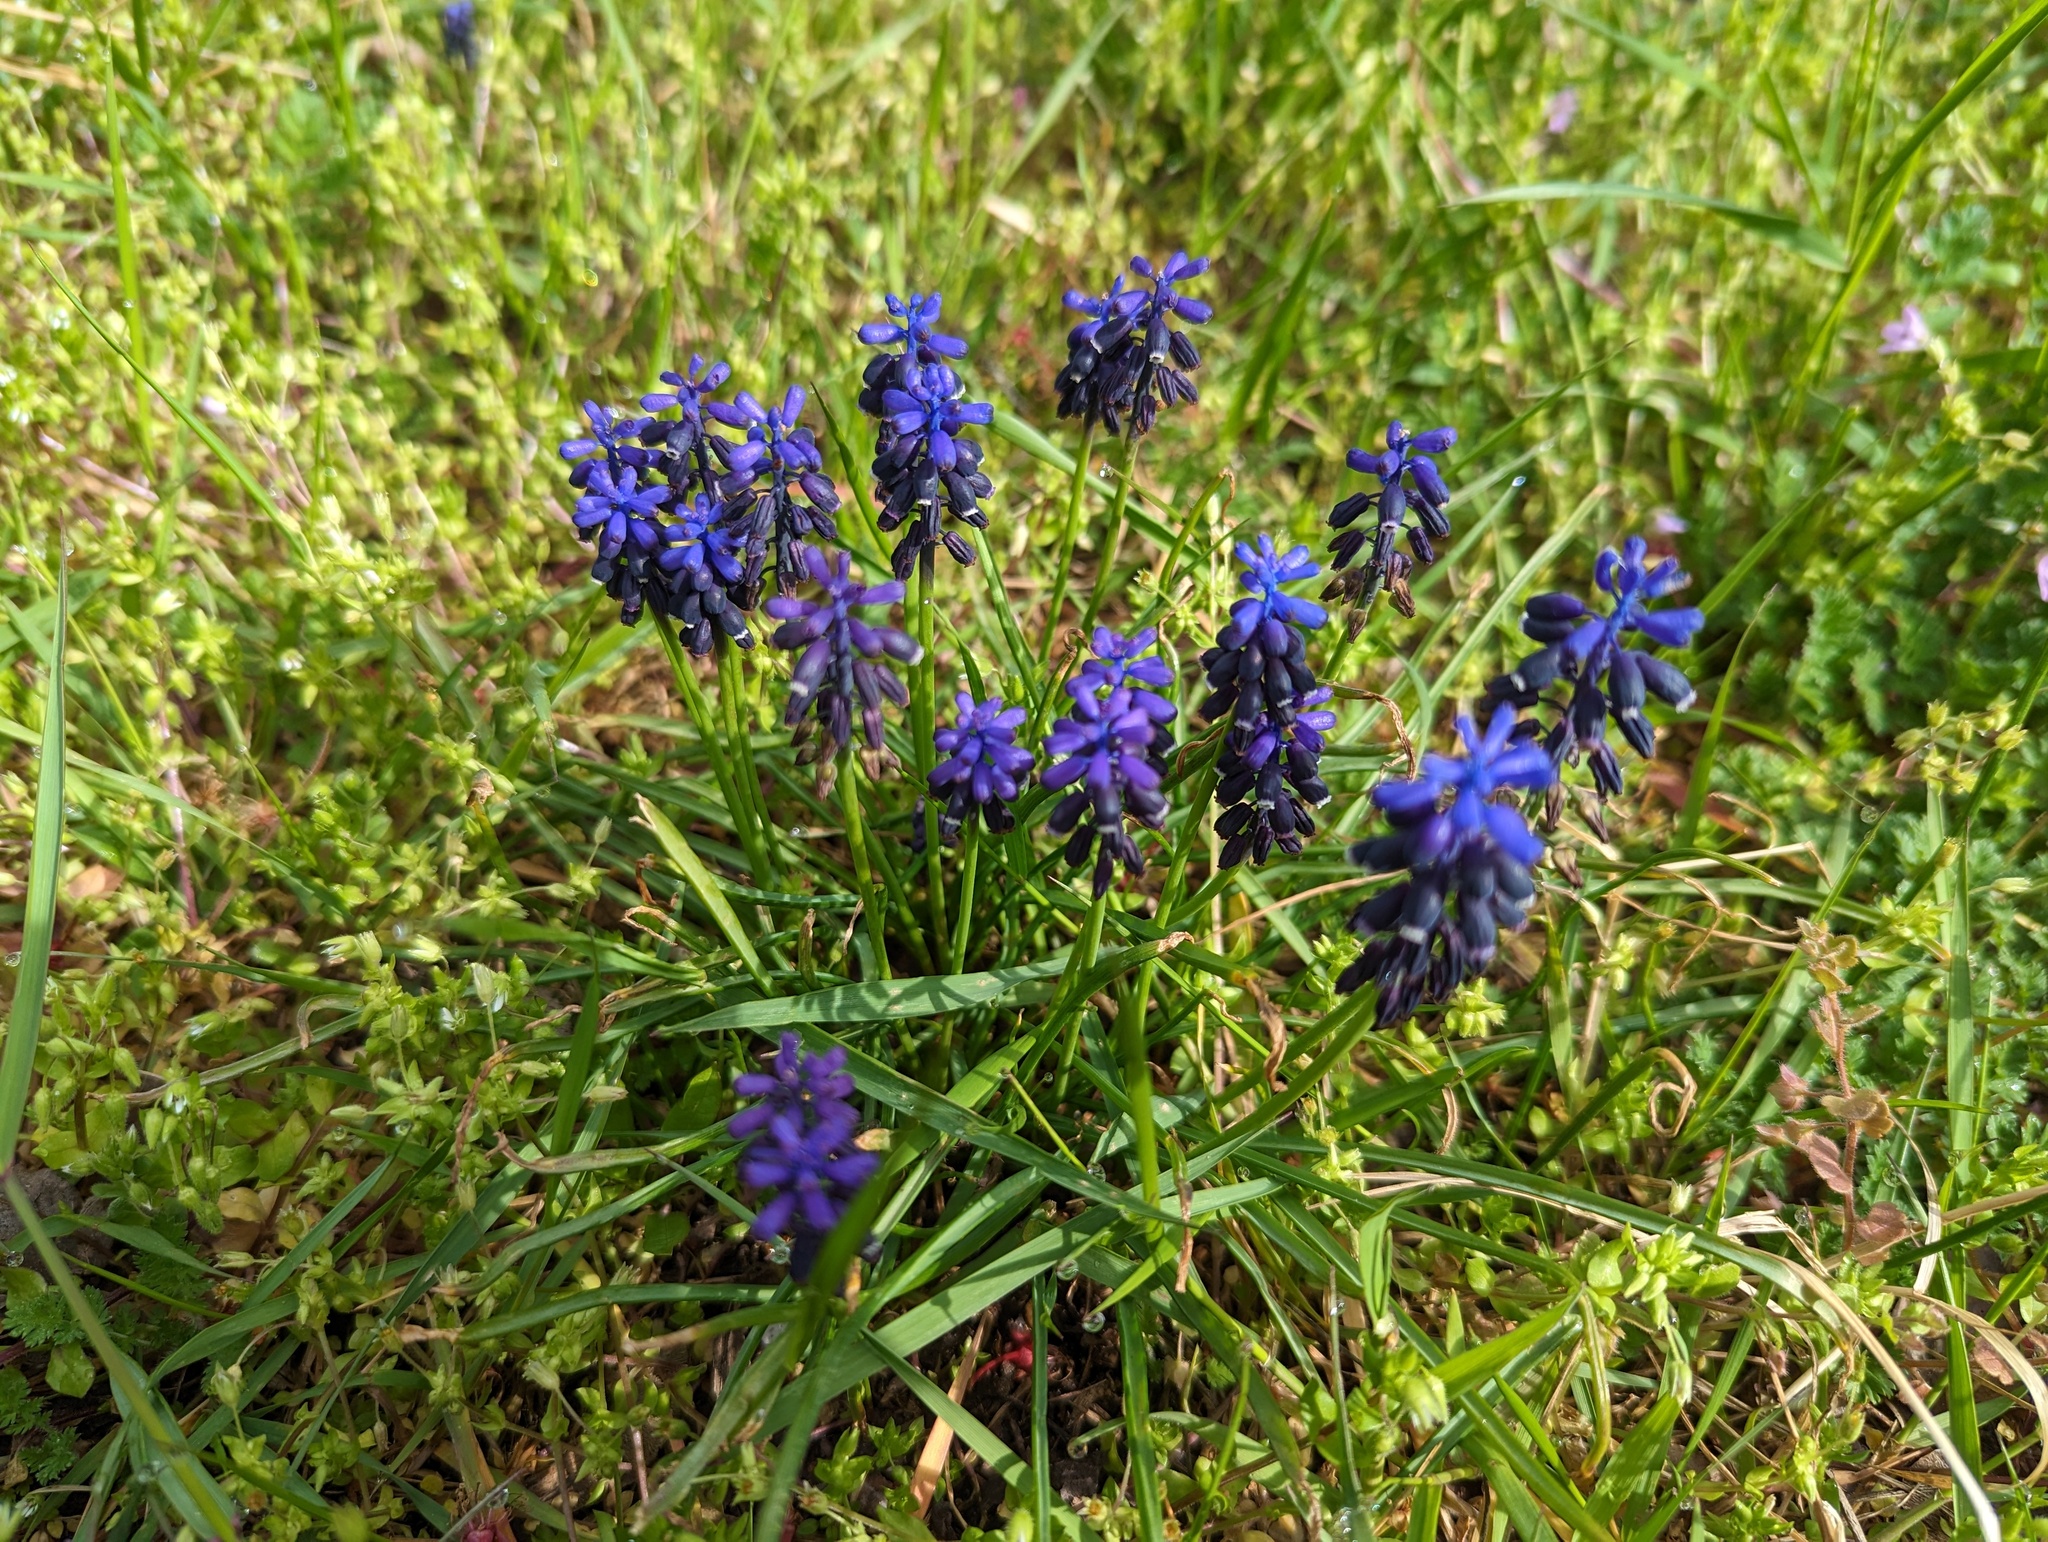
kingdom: Plantae
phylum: Tracheophyta
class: Liliopsida
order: Asparagales
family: Asparagaceae
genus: Muscari
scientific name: Muscari neglectum
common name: Grape-hyacinth
